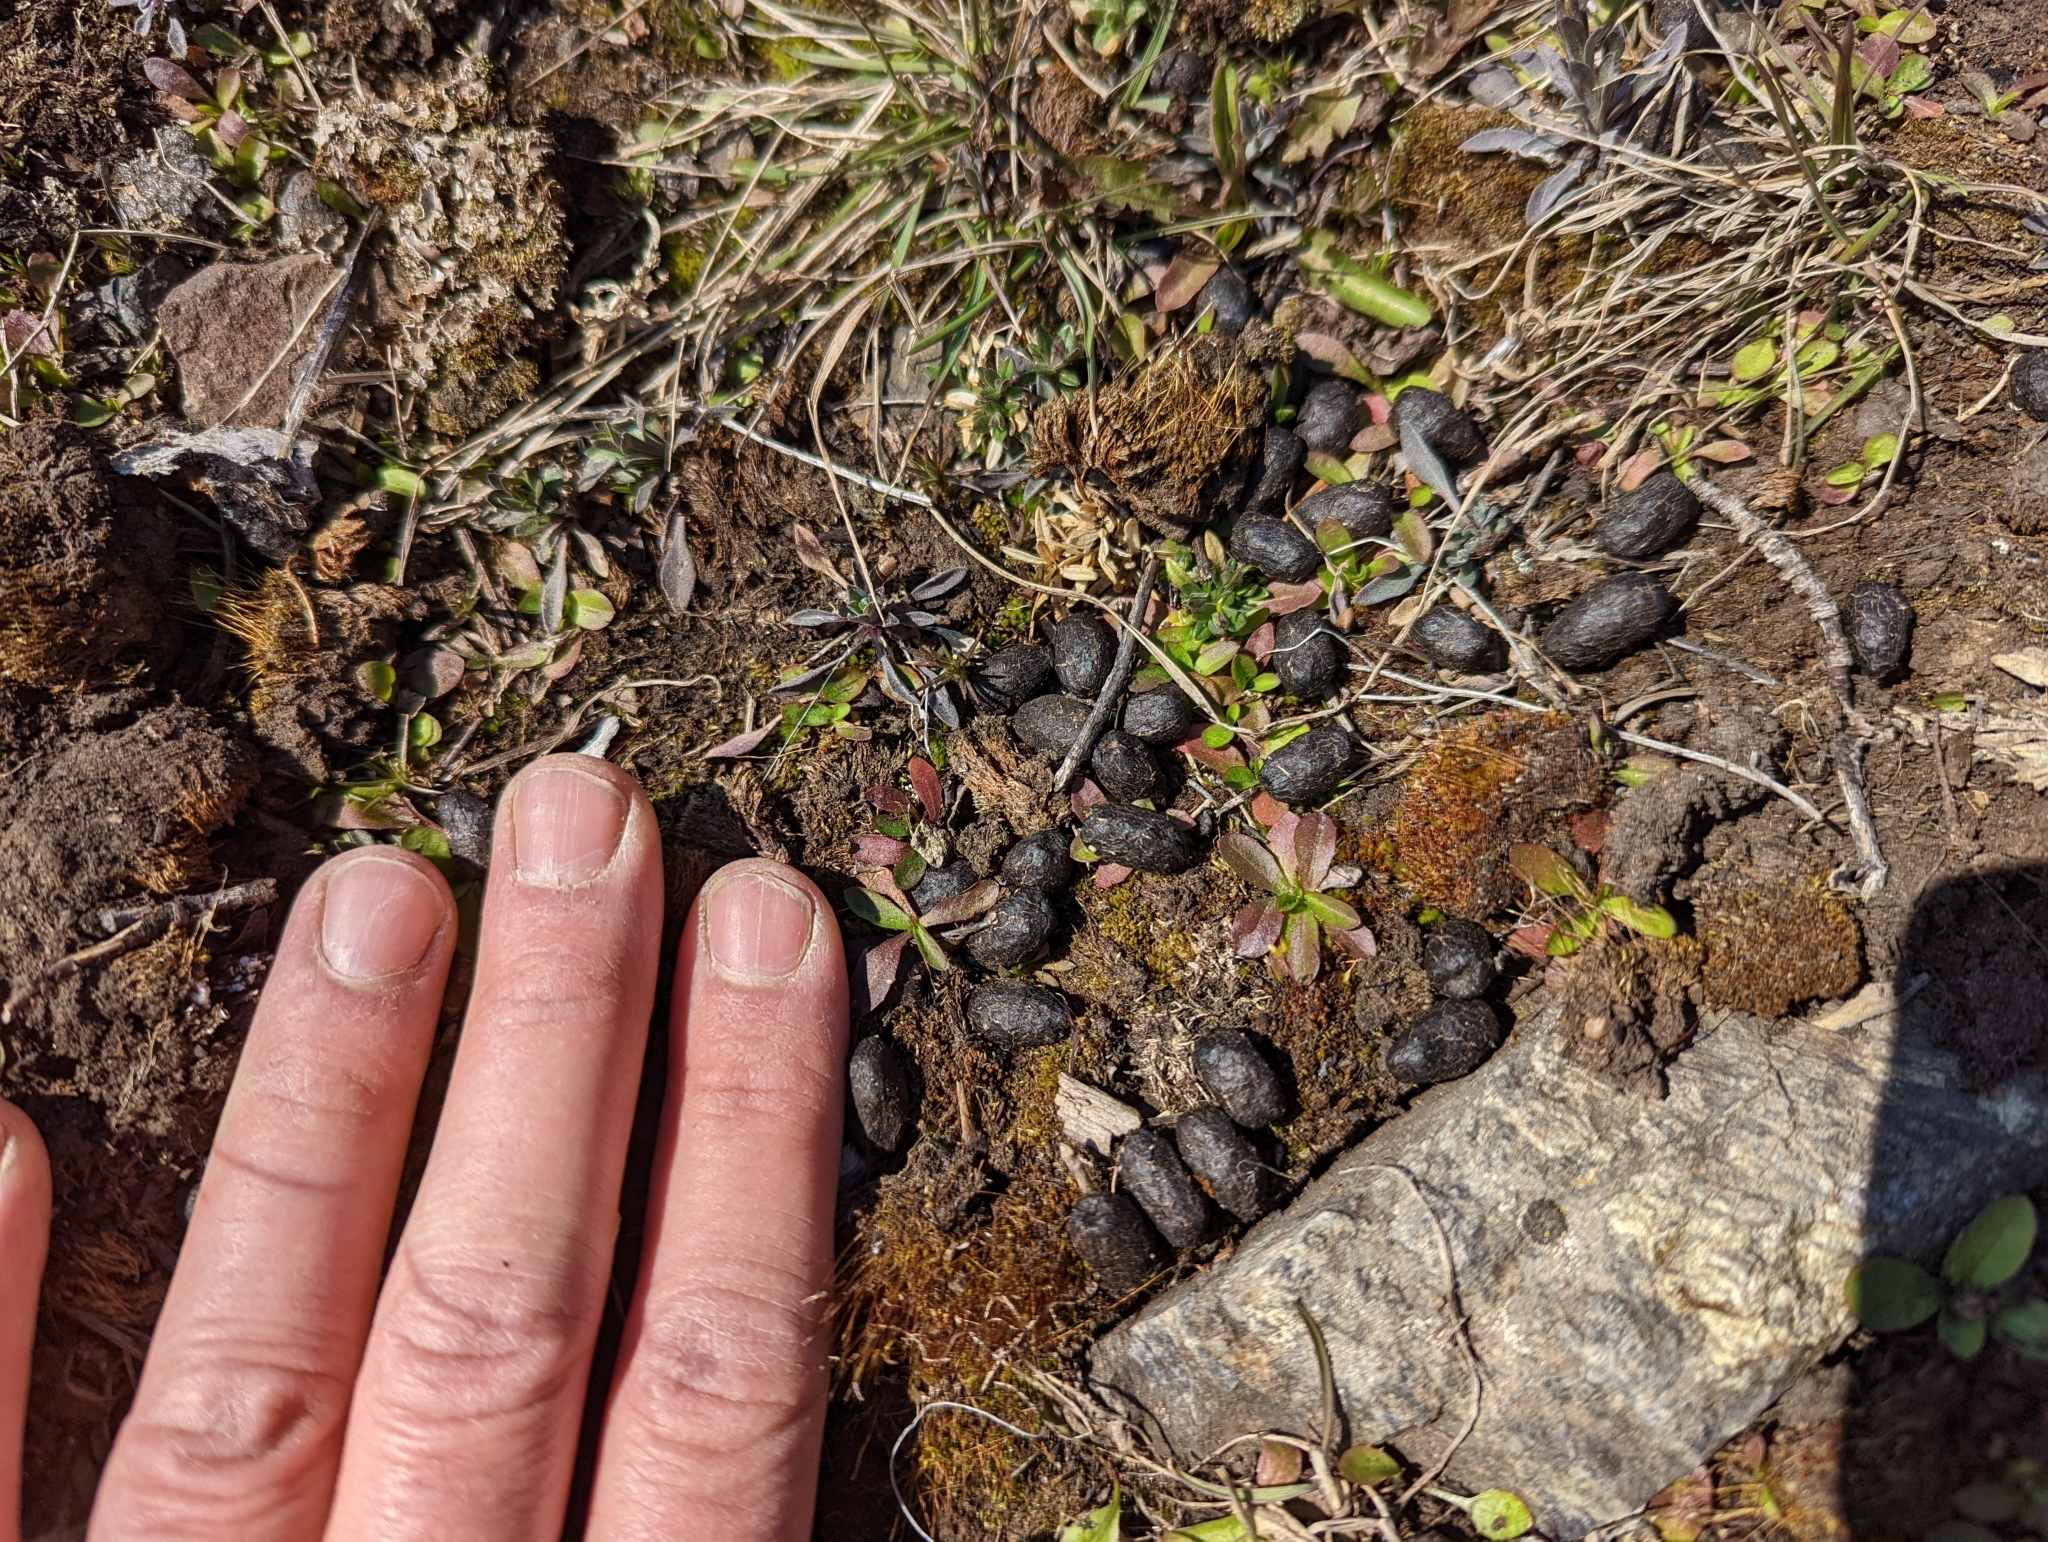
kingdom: Animalia
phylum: Chordata
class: Mammalia
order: Artiodactyla
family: Bovidae
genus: Ovis
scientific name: Ovis dalli
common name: Dall's sheep
